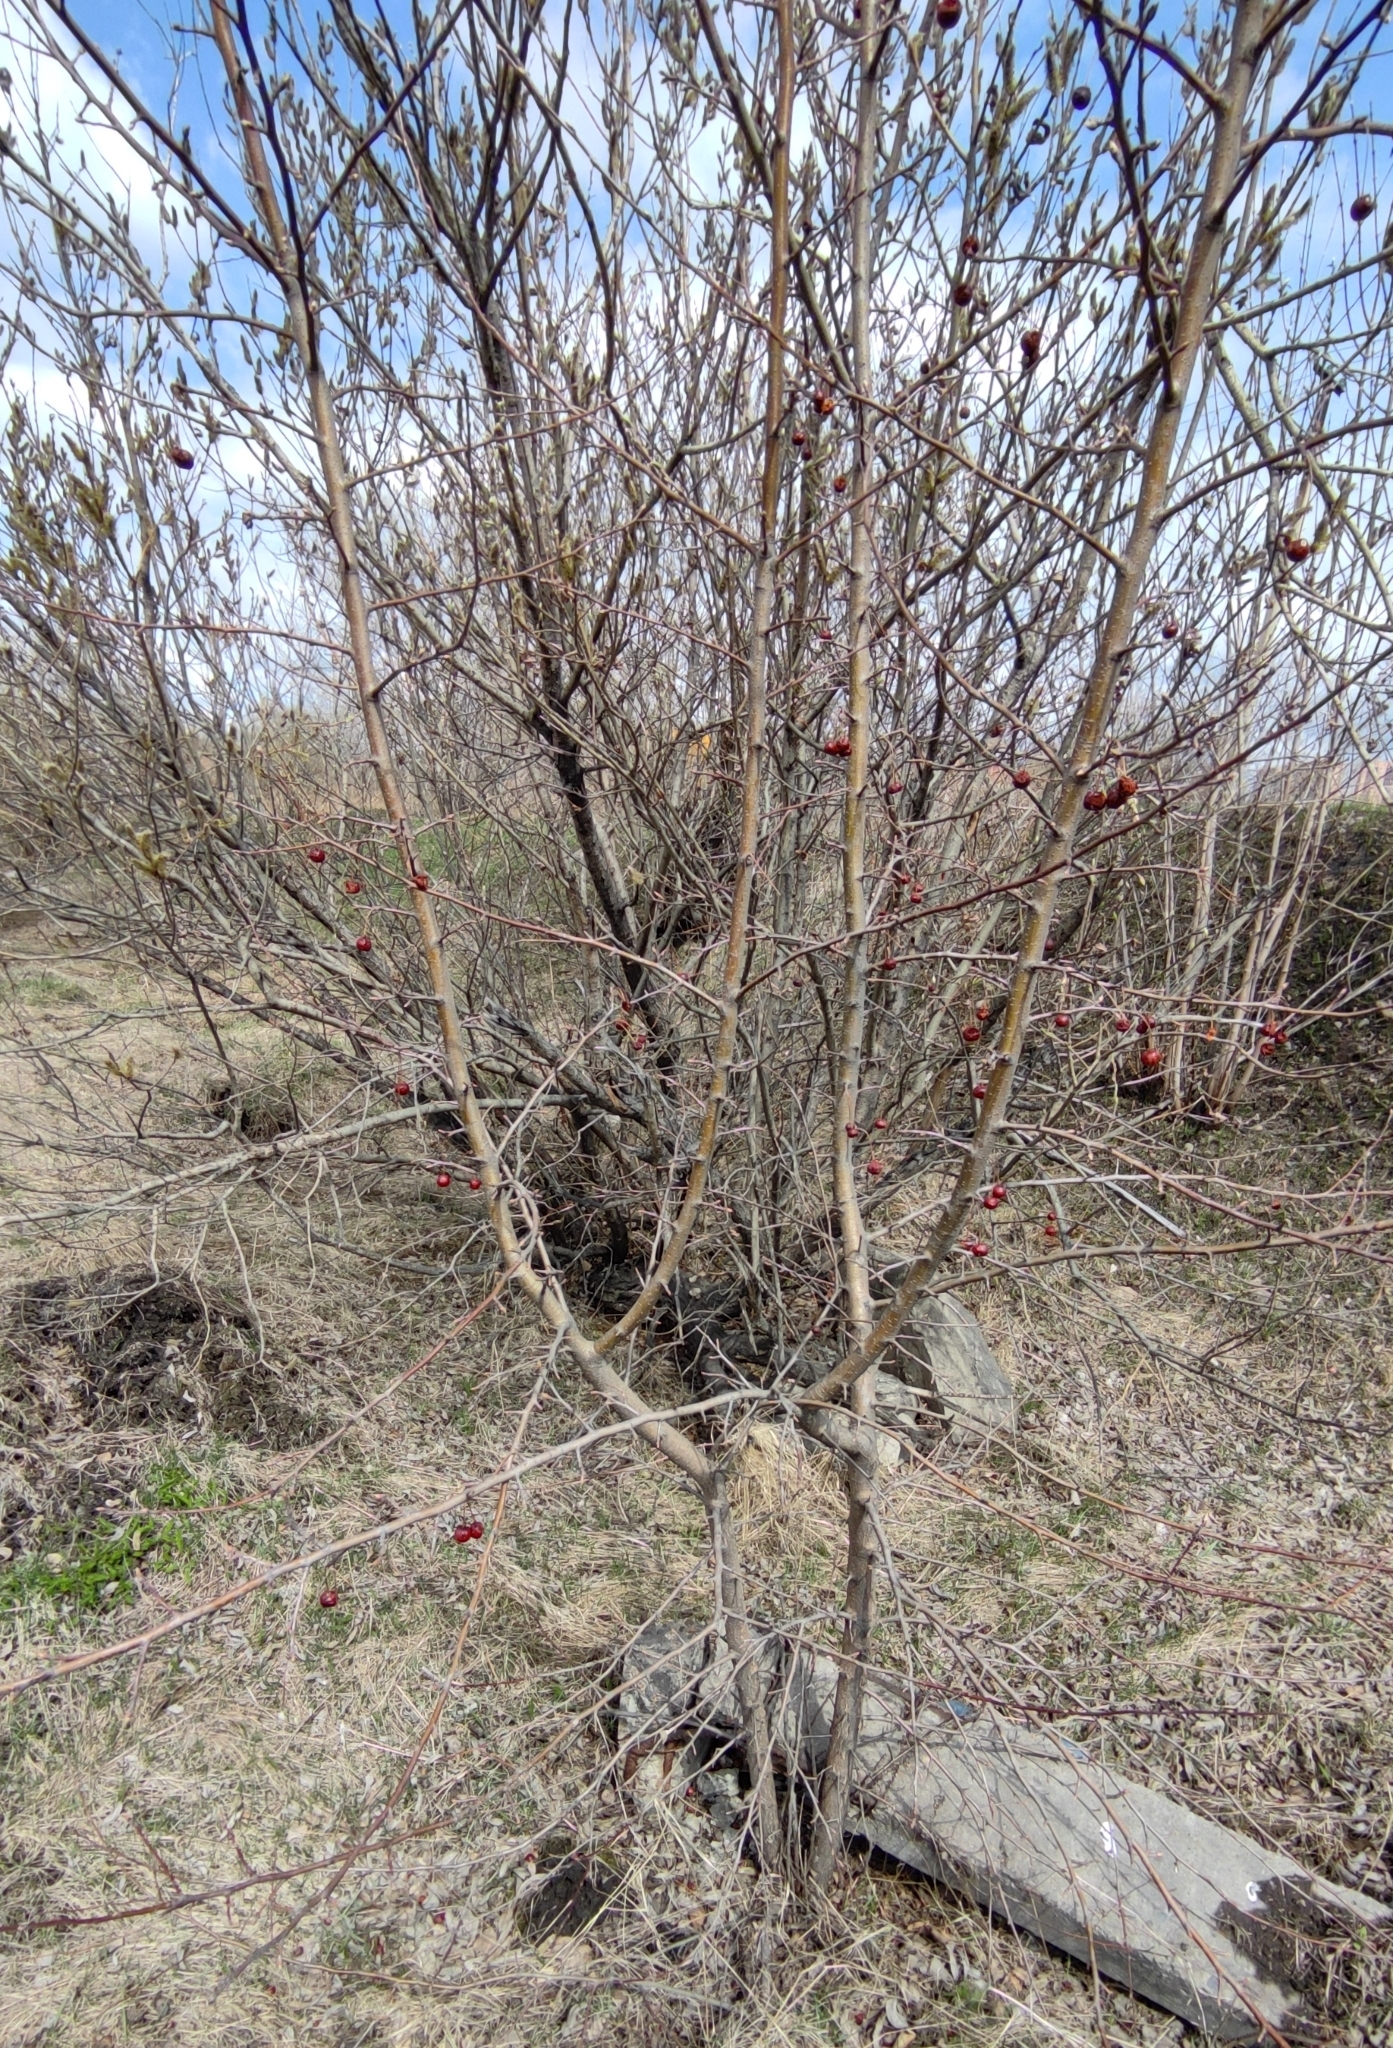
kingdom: Plantae
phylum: Tracheophyta
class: Magnoliopsida
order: Rosales
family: Rosaceae
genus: Malus
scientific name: Malus baccata
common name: Siberian crab
